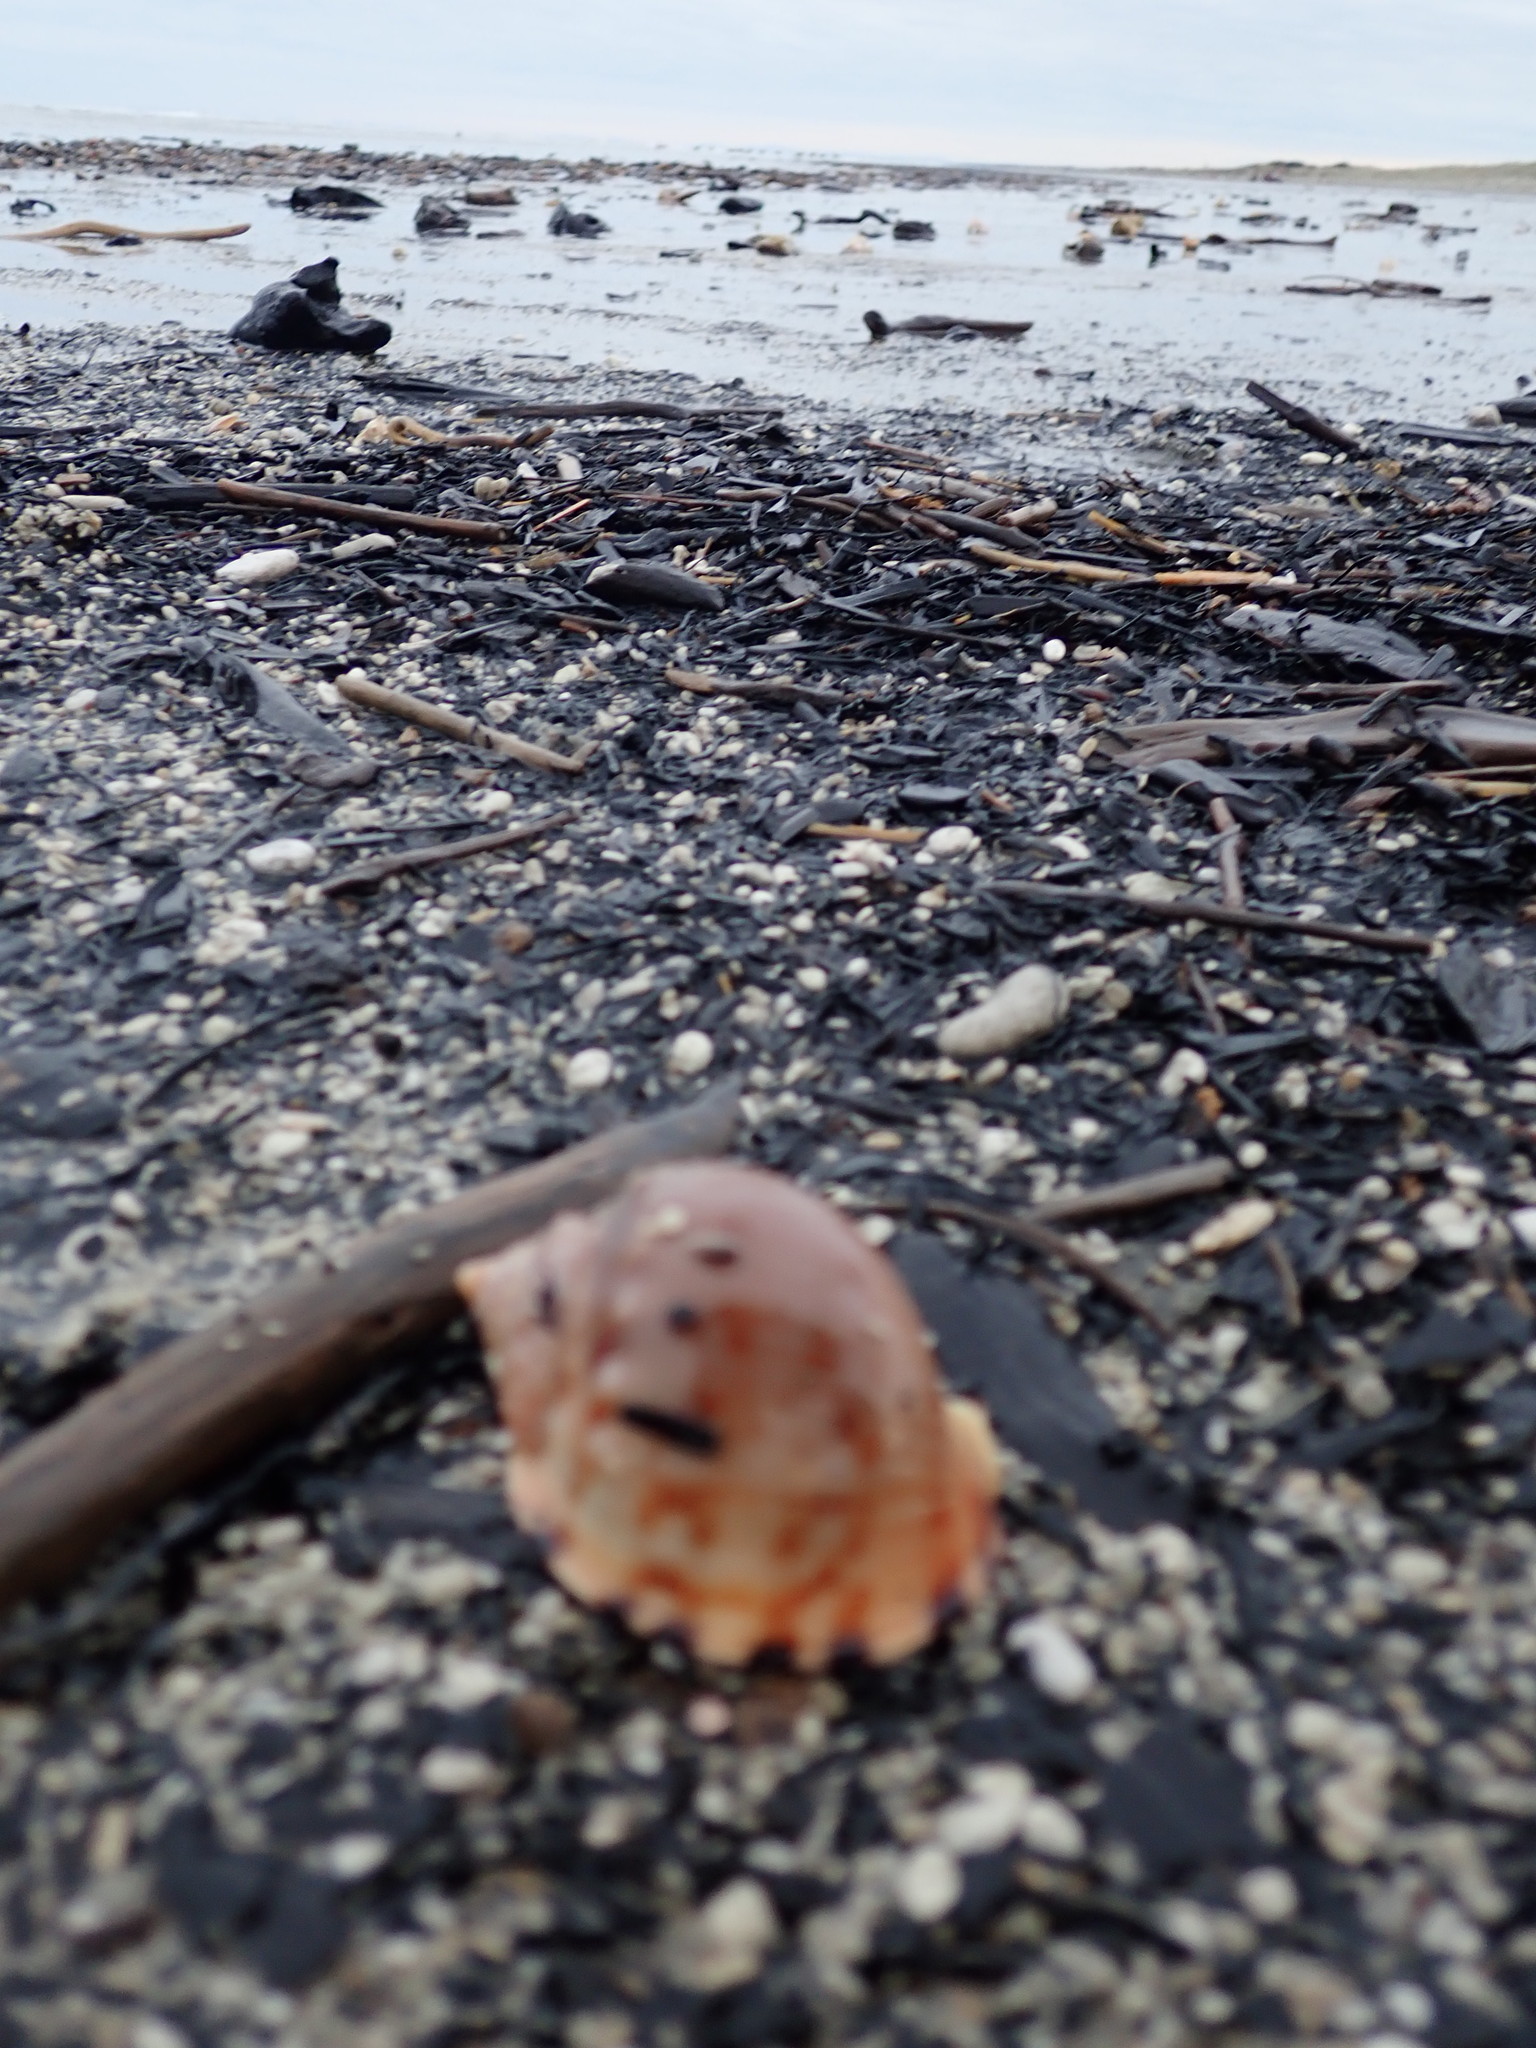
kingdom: Animalia
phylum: Mollusca
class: Gastropoda
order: Littorinimorpha
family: Cassidae
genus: Semicassis
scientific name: Semicassis pyrum
